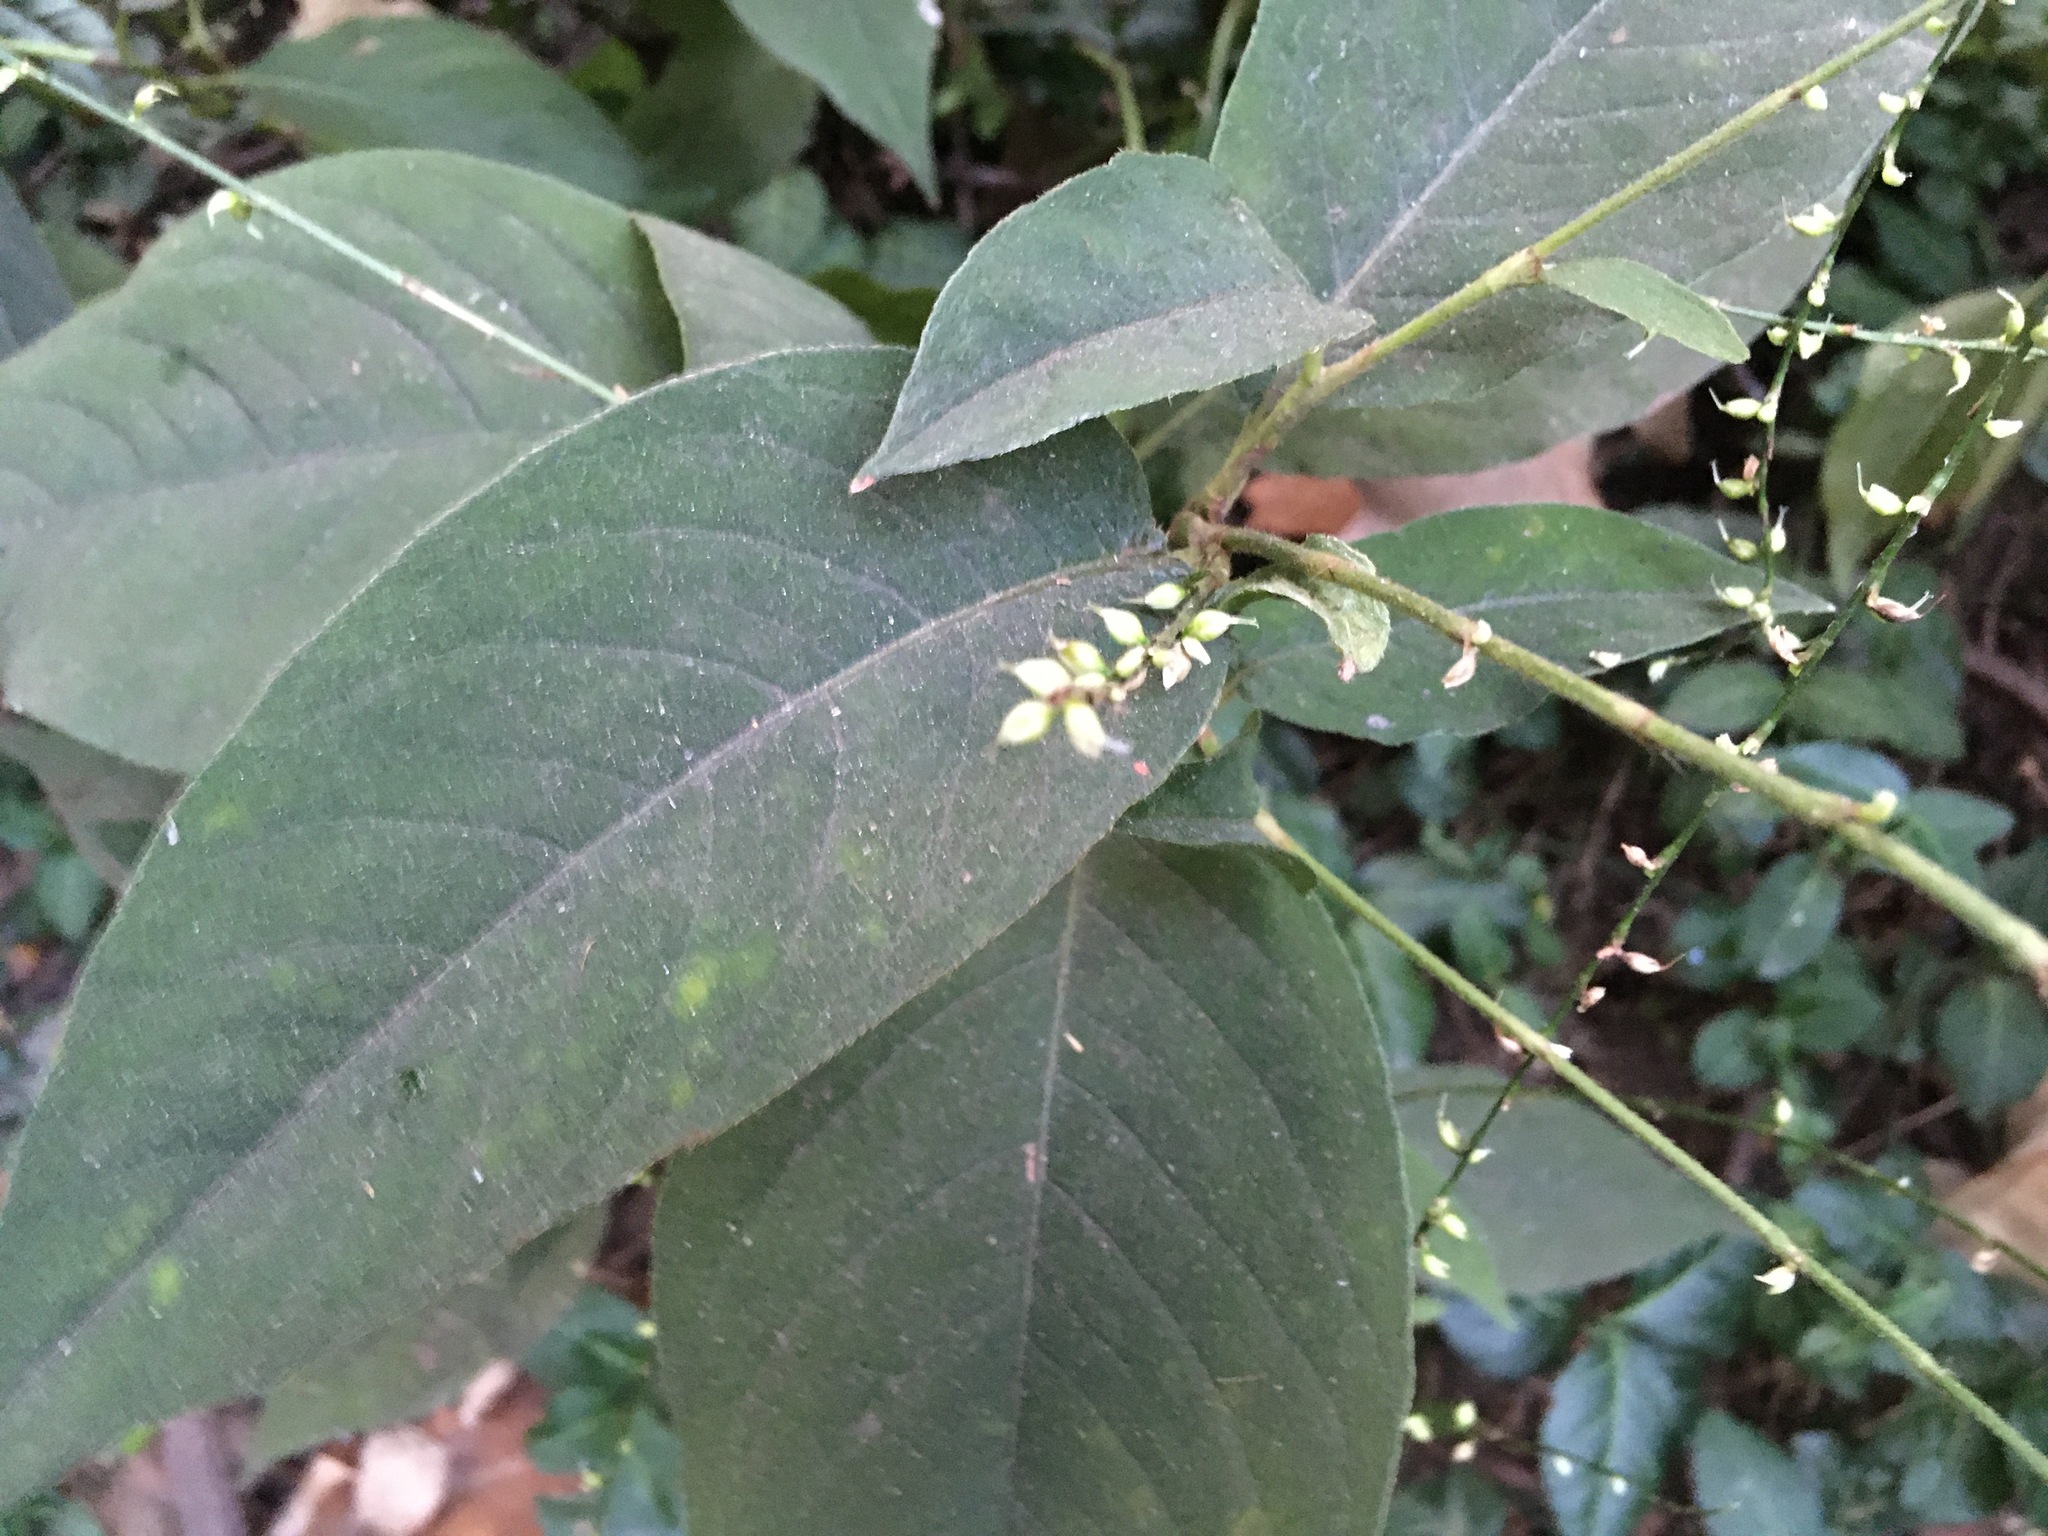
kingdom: Plantae
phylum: Tracheophyta
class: Magnoliopsida
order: Caryophyllales
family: Polygonaceae
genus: Persicaria
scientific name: Persicaria virginiana
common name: Jumpseed
